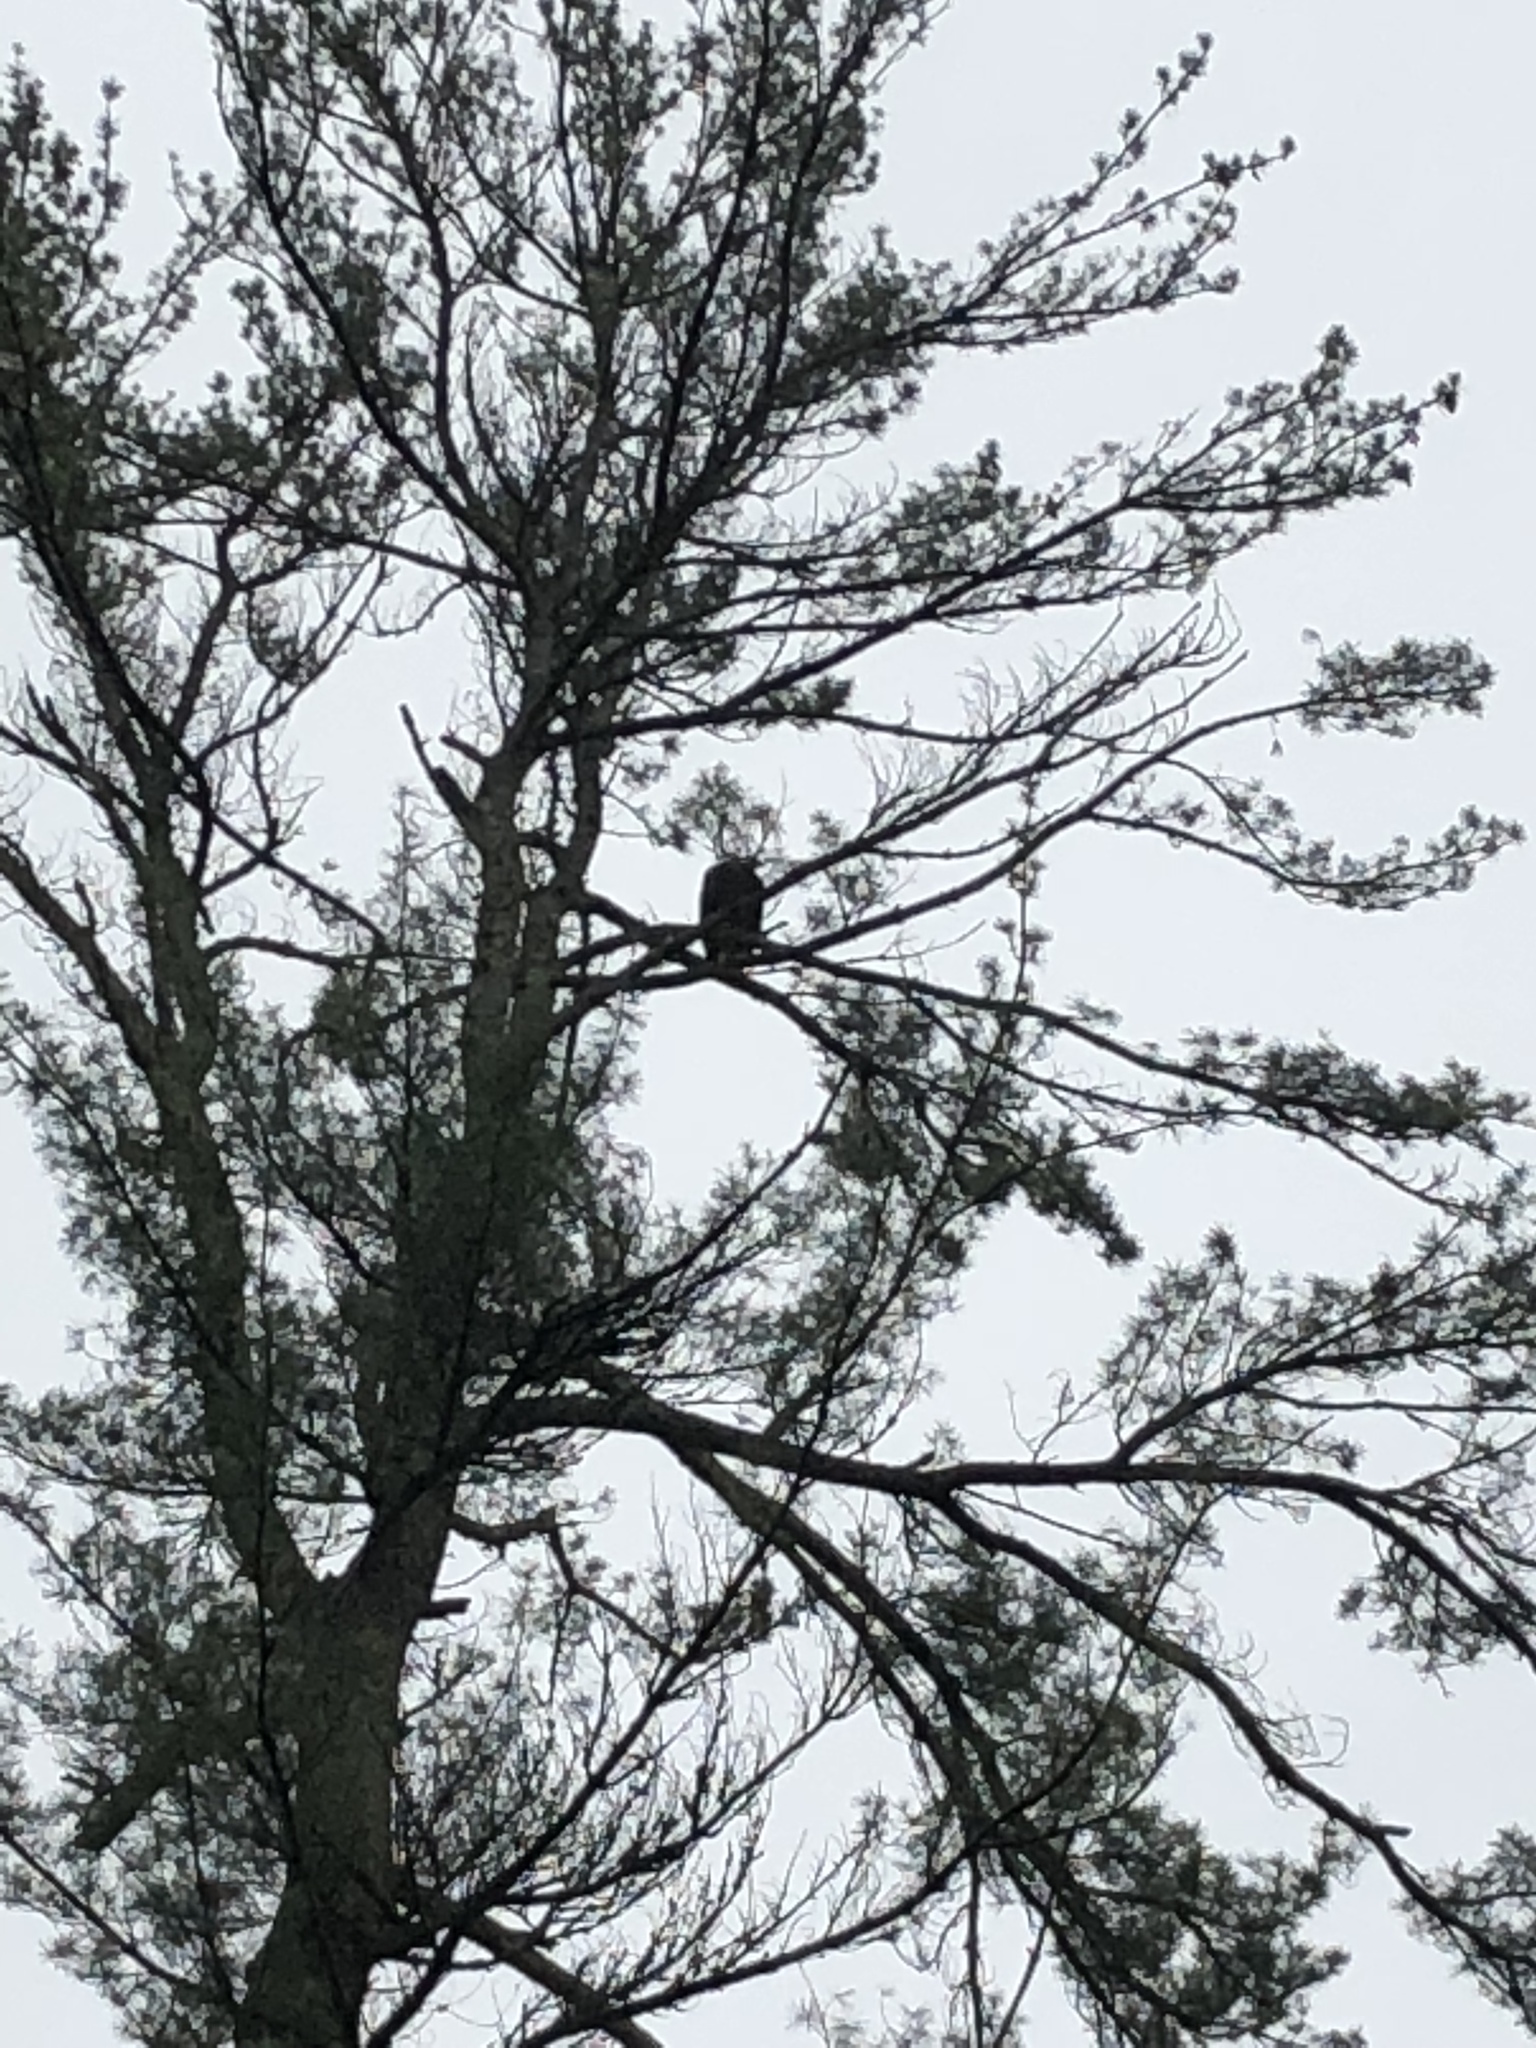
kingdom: Animalia
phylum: Chordata
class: Aves
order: Accipitriformes
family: Accipitridae
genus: Haliaeetus
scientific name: Haliaeetus leucocephalus
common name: Bald eagle
